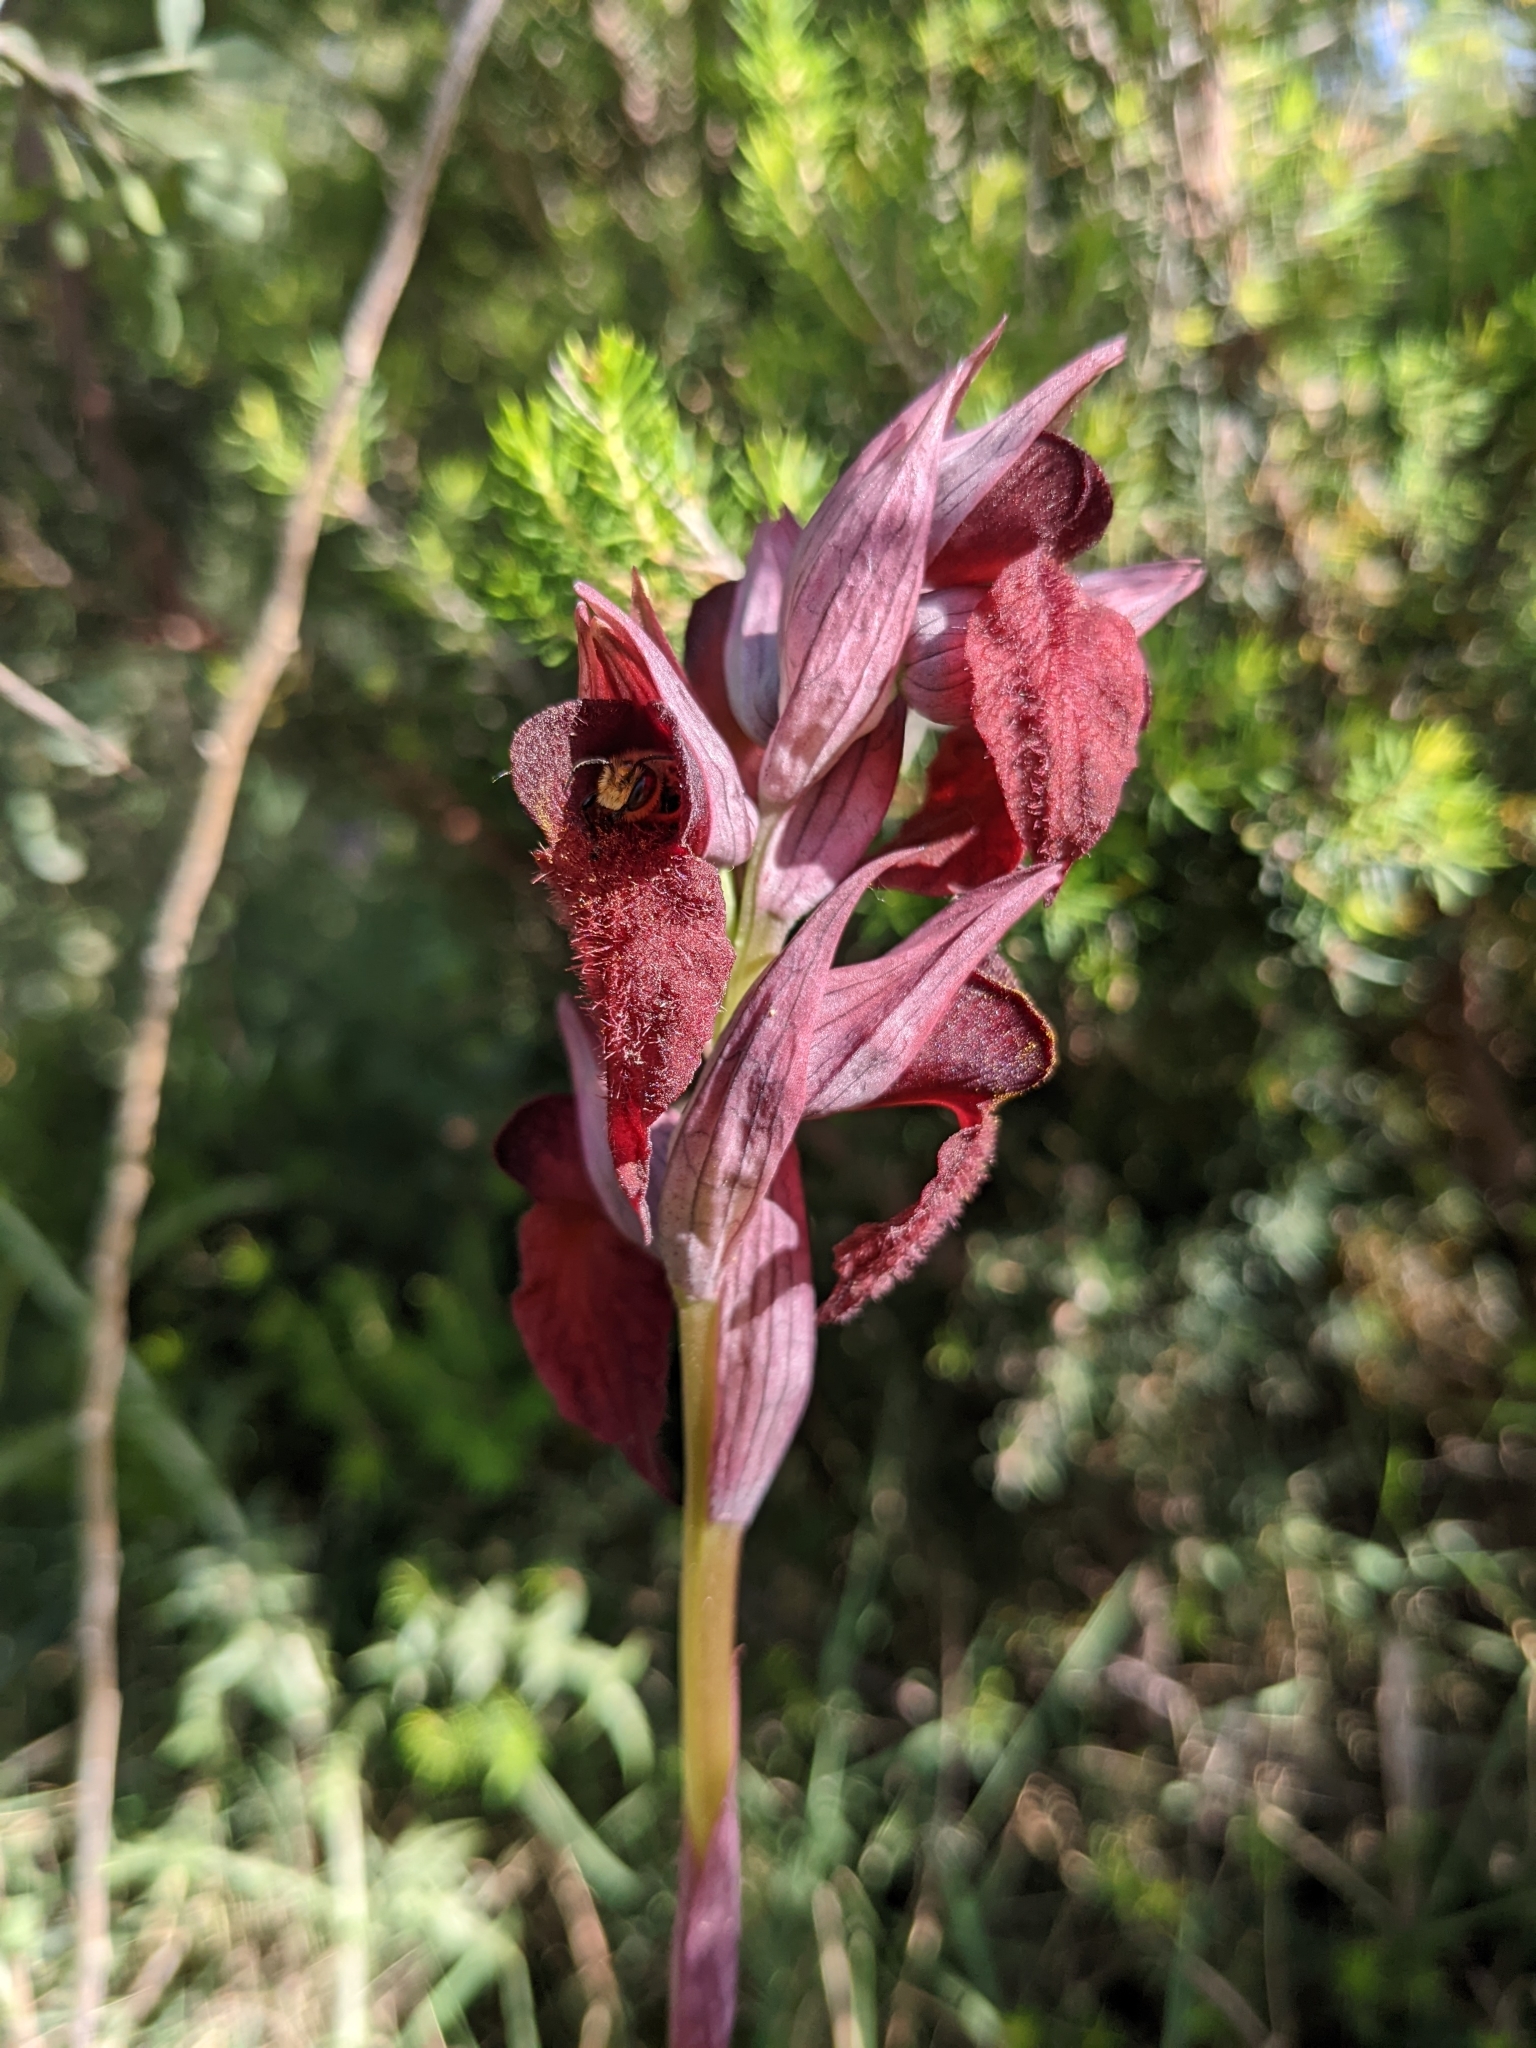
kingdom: Plantae
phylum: Tracheophyta
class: Liliopsida
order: Asparagales
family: Orchidaceae
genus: Serapias
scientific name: Serapias cordigera
